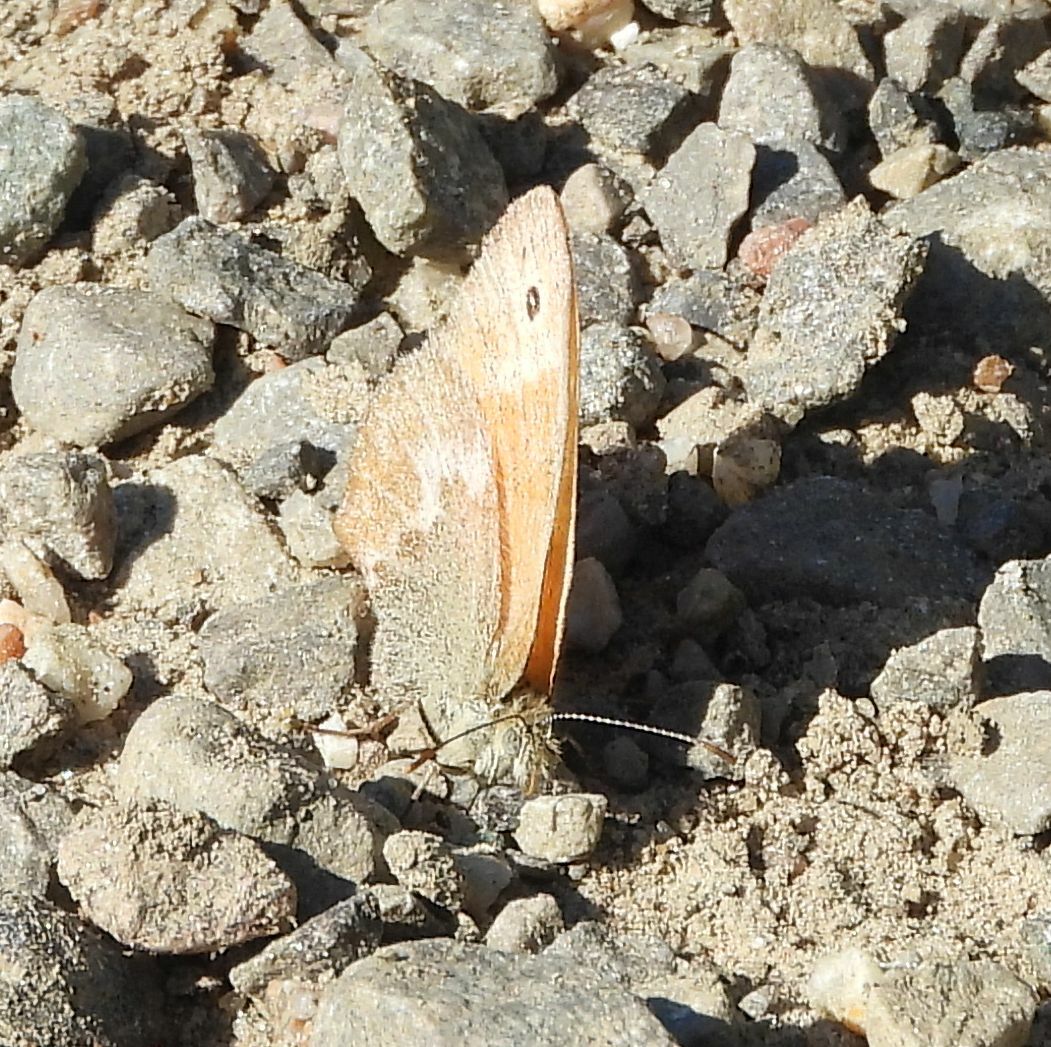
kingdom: Animalia
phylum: Arthropoda
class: Insecta
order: Lepidoptera
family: Nymphalidae
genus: Coenonympha
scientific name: Coenonympha california
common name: Common ringlet
